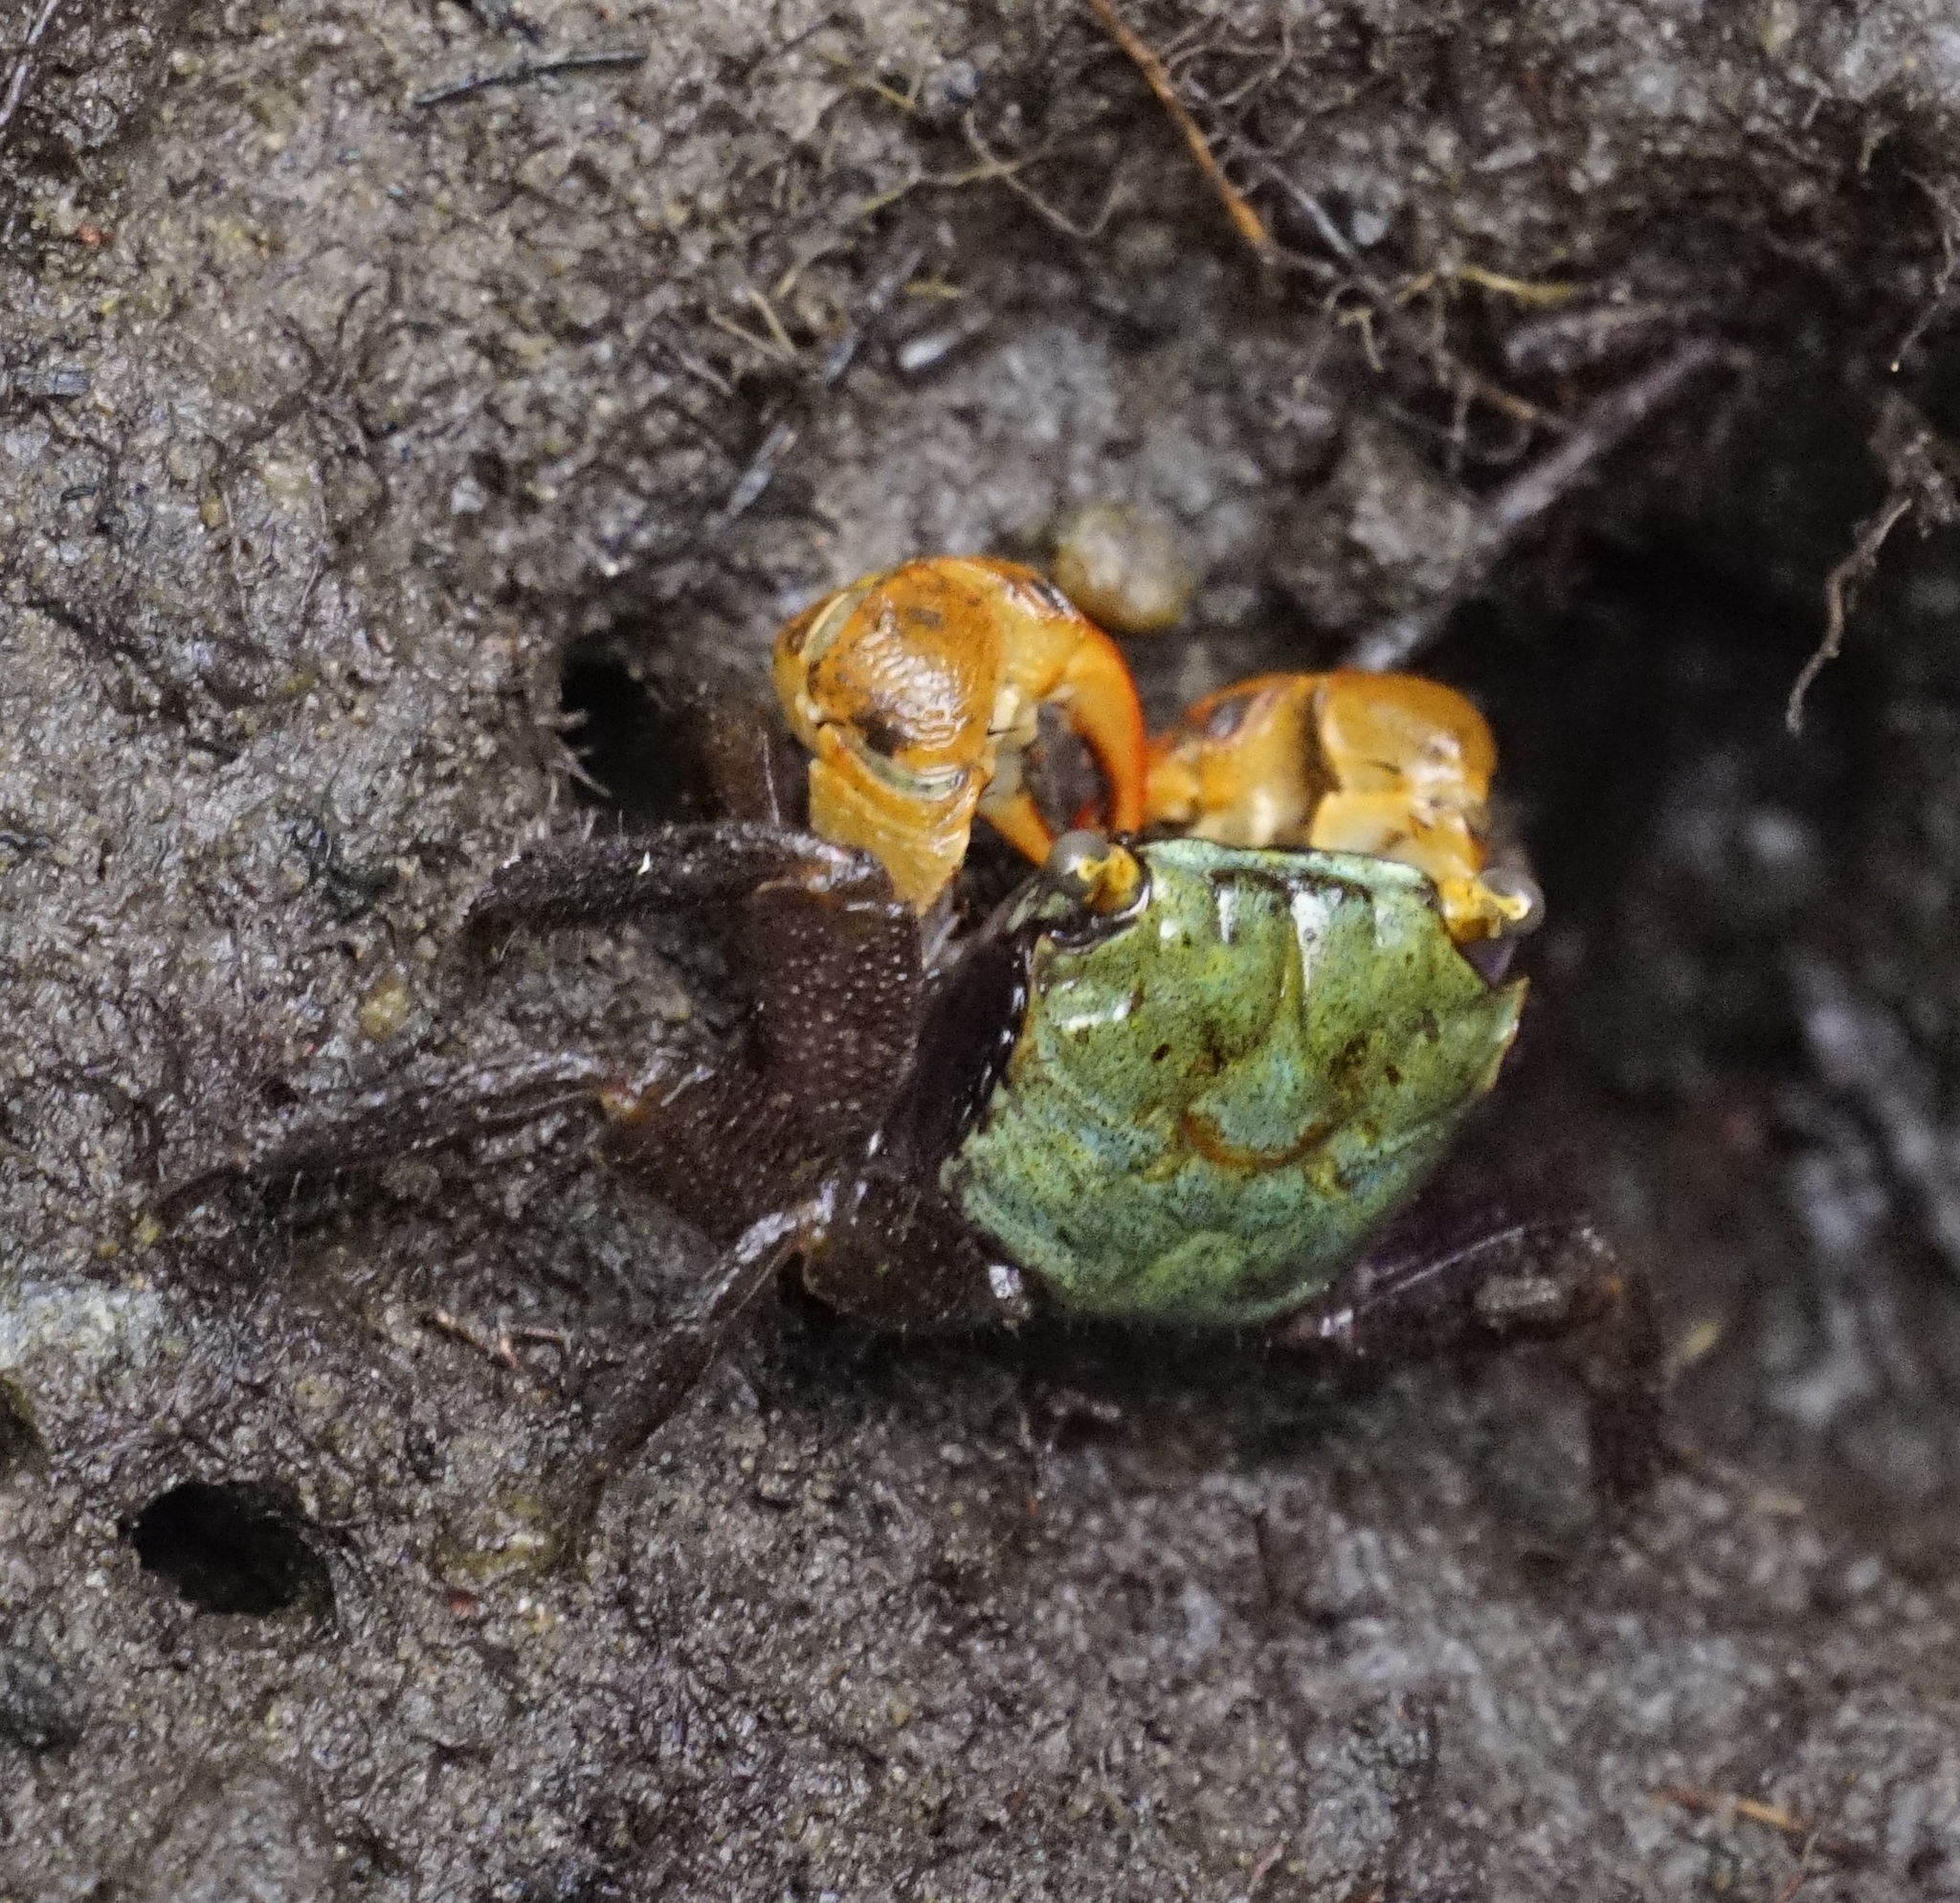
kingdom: Animalia
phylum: Arthropoda
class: Malacostraca
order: Decapoda
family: Sesarmidae
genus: Parasesarma
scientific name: Parasesarma erythodactylum
